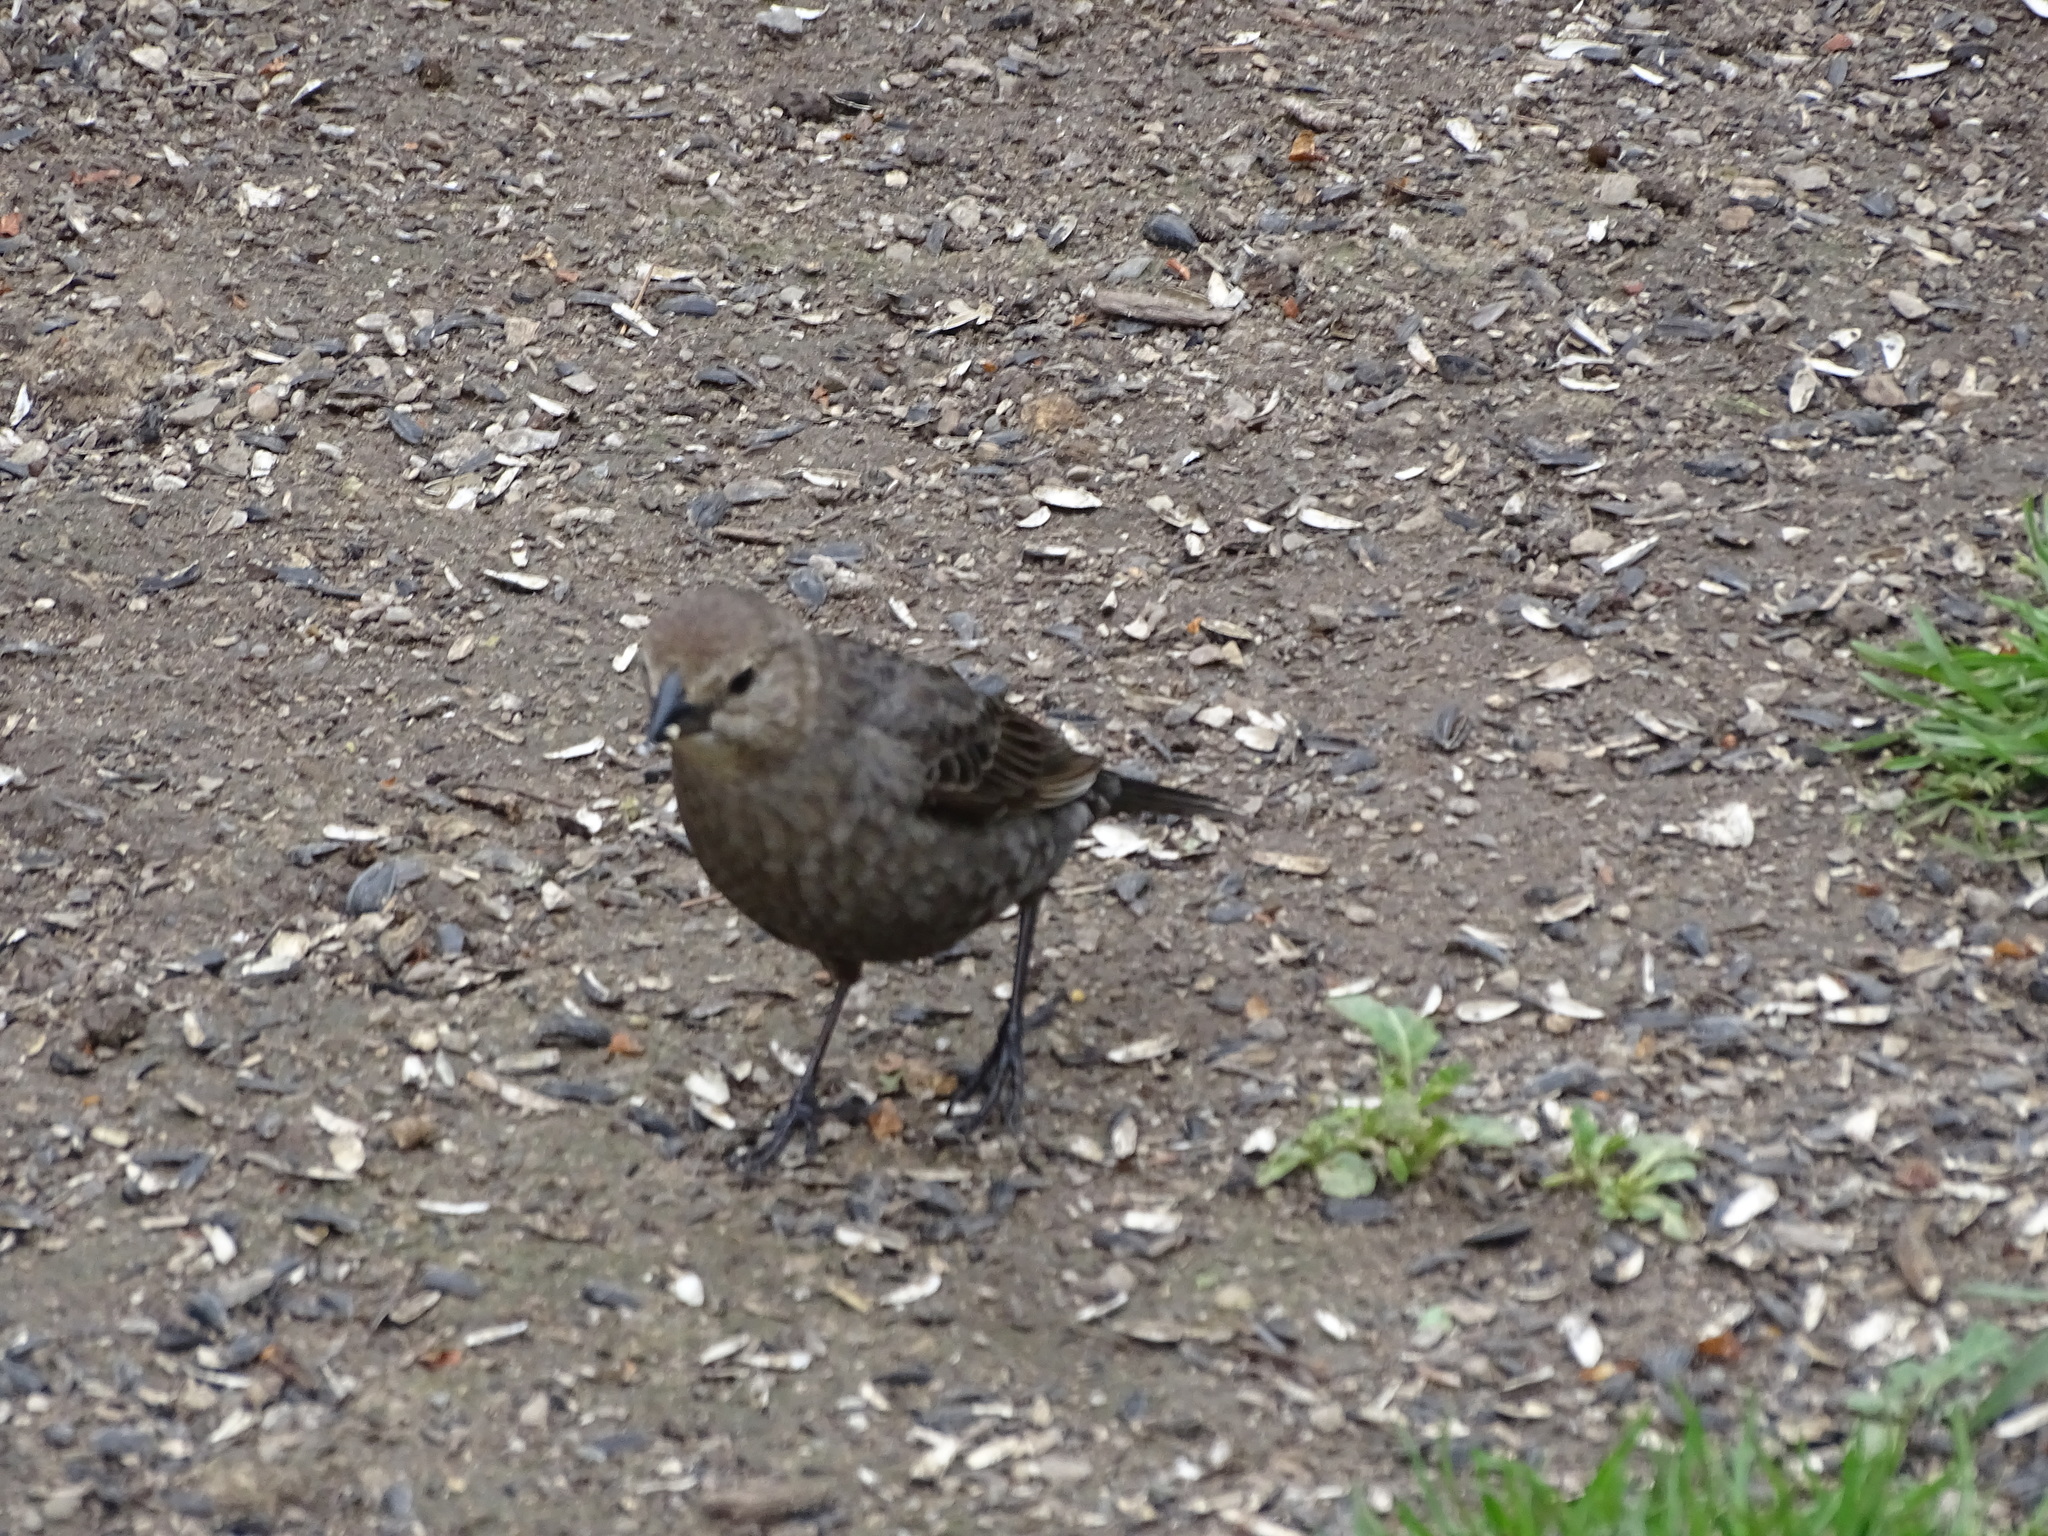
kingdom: Animalia
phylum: Chordata
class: Aves
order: Passeriformes
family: Icteridae
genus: Molothrus
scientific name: Molothrus ater
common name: Brown-headed cowbird
